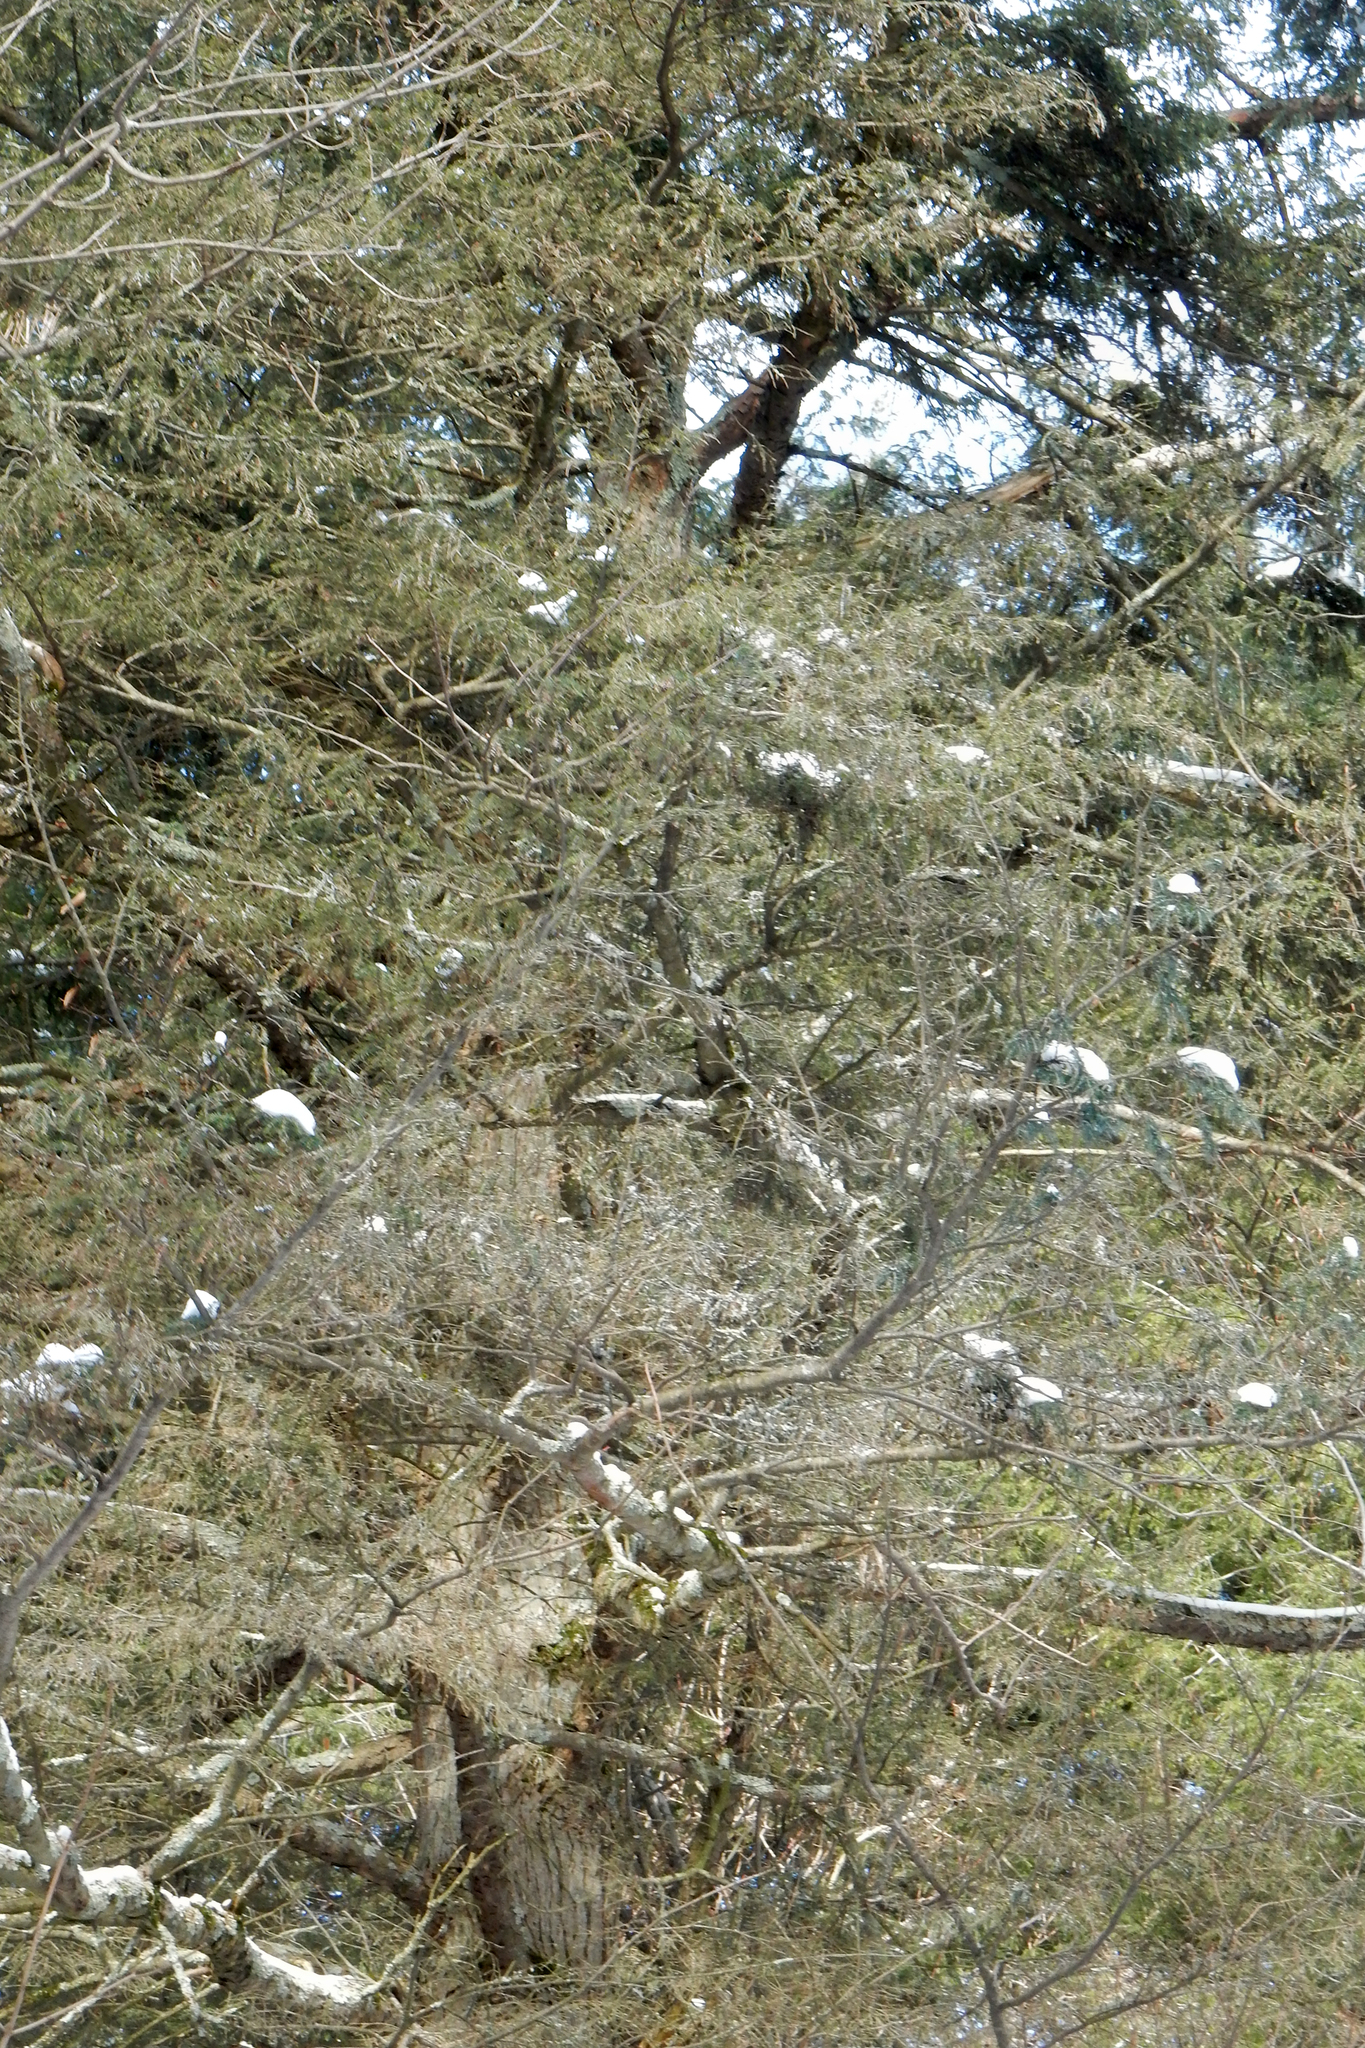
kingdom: Plantae
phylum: Tracheophyta
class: Pinopsida
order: Pinales
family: Pinaceae
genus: Tsuga
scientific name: Tsuga canadensis
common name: Eastern hemlock
